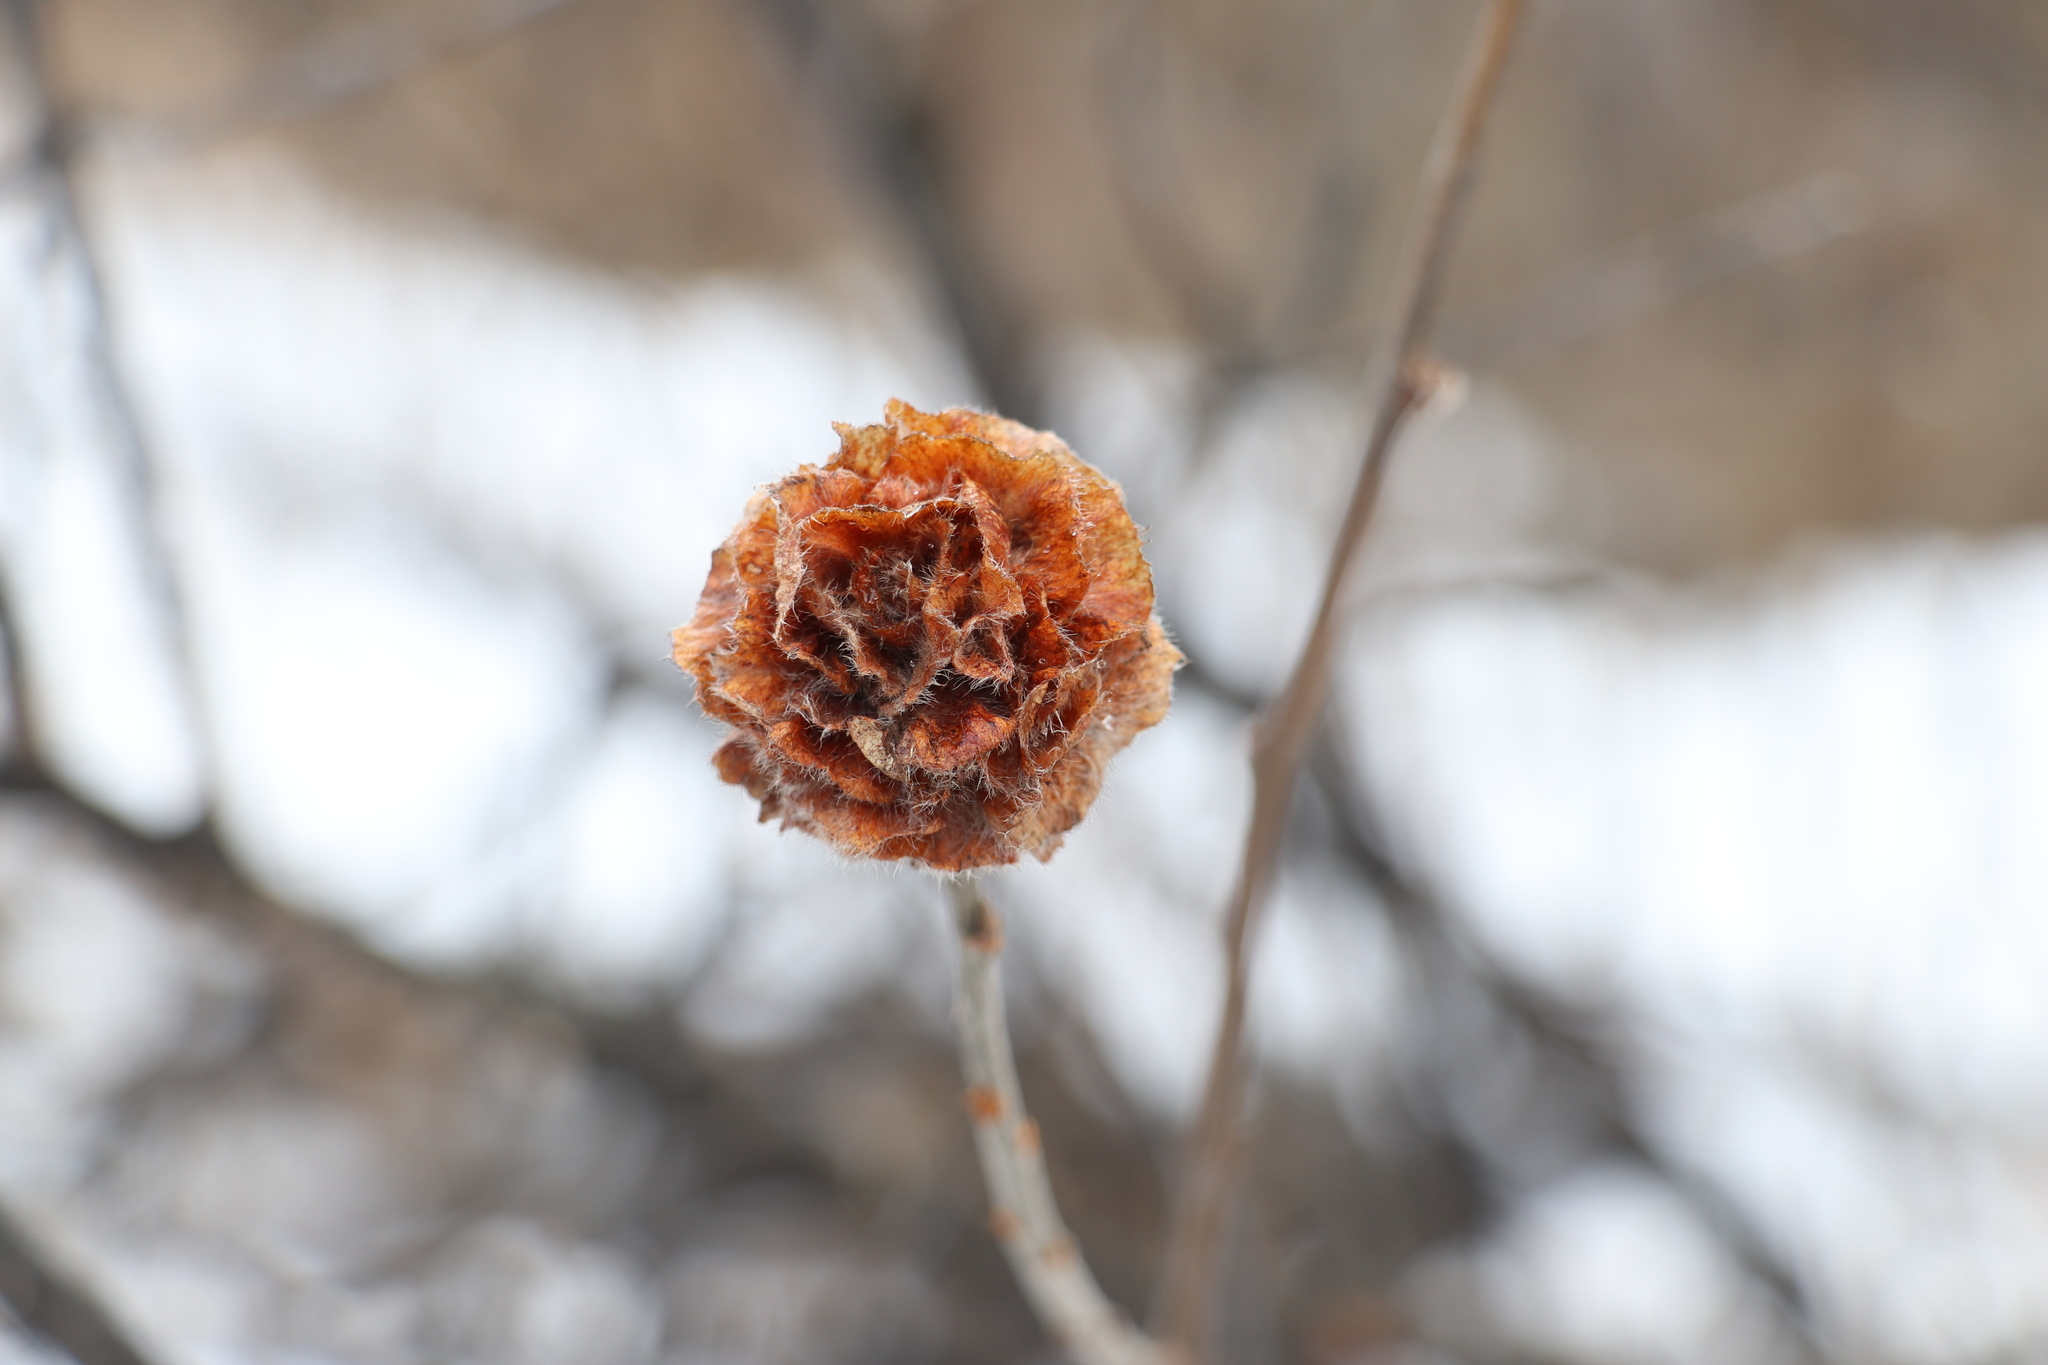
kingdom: Animalia
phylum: Arthropoda
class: Insecta
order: Diptera
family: Cecidomyiidae
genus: Rabdophaga
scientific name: Rabdophaga rosaria
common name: Willow rose gall midge
